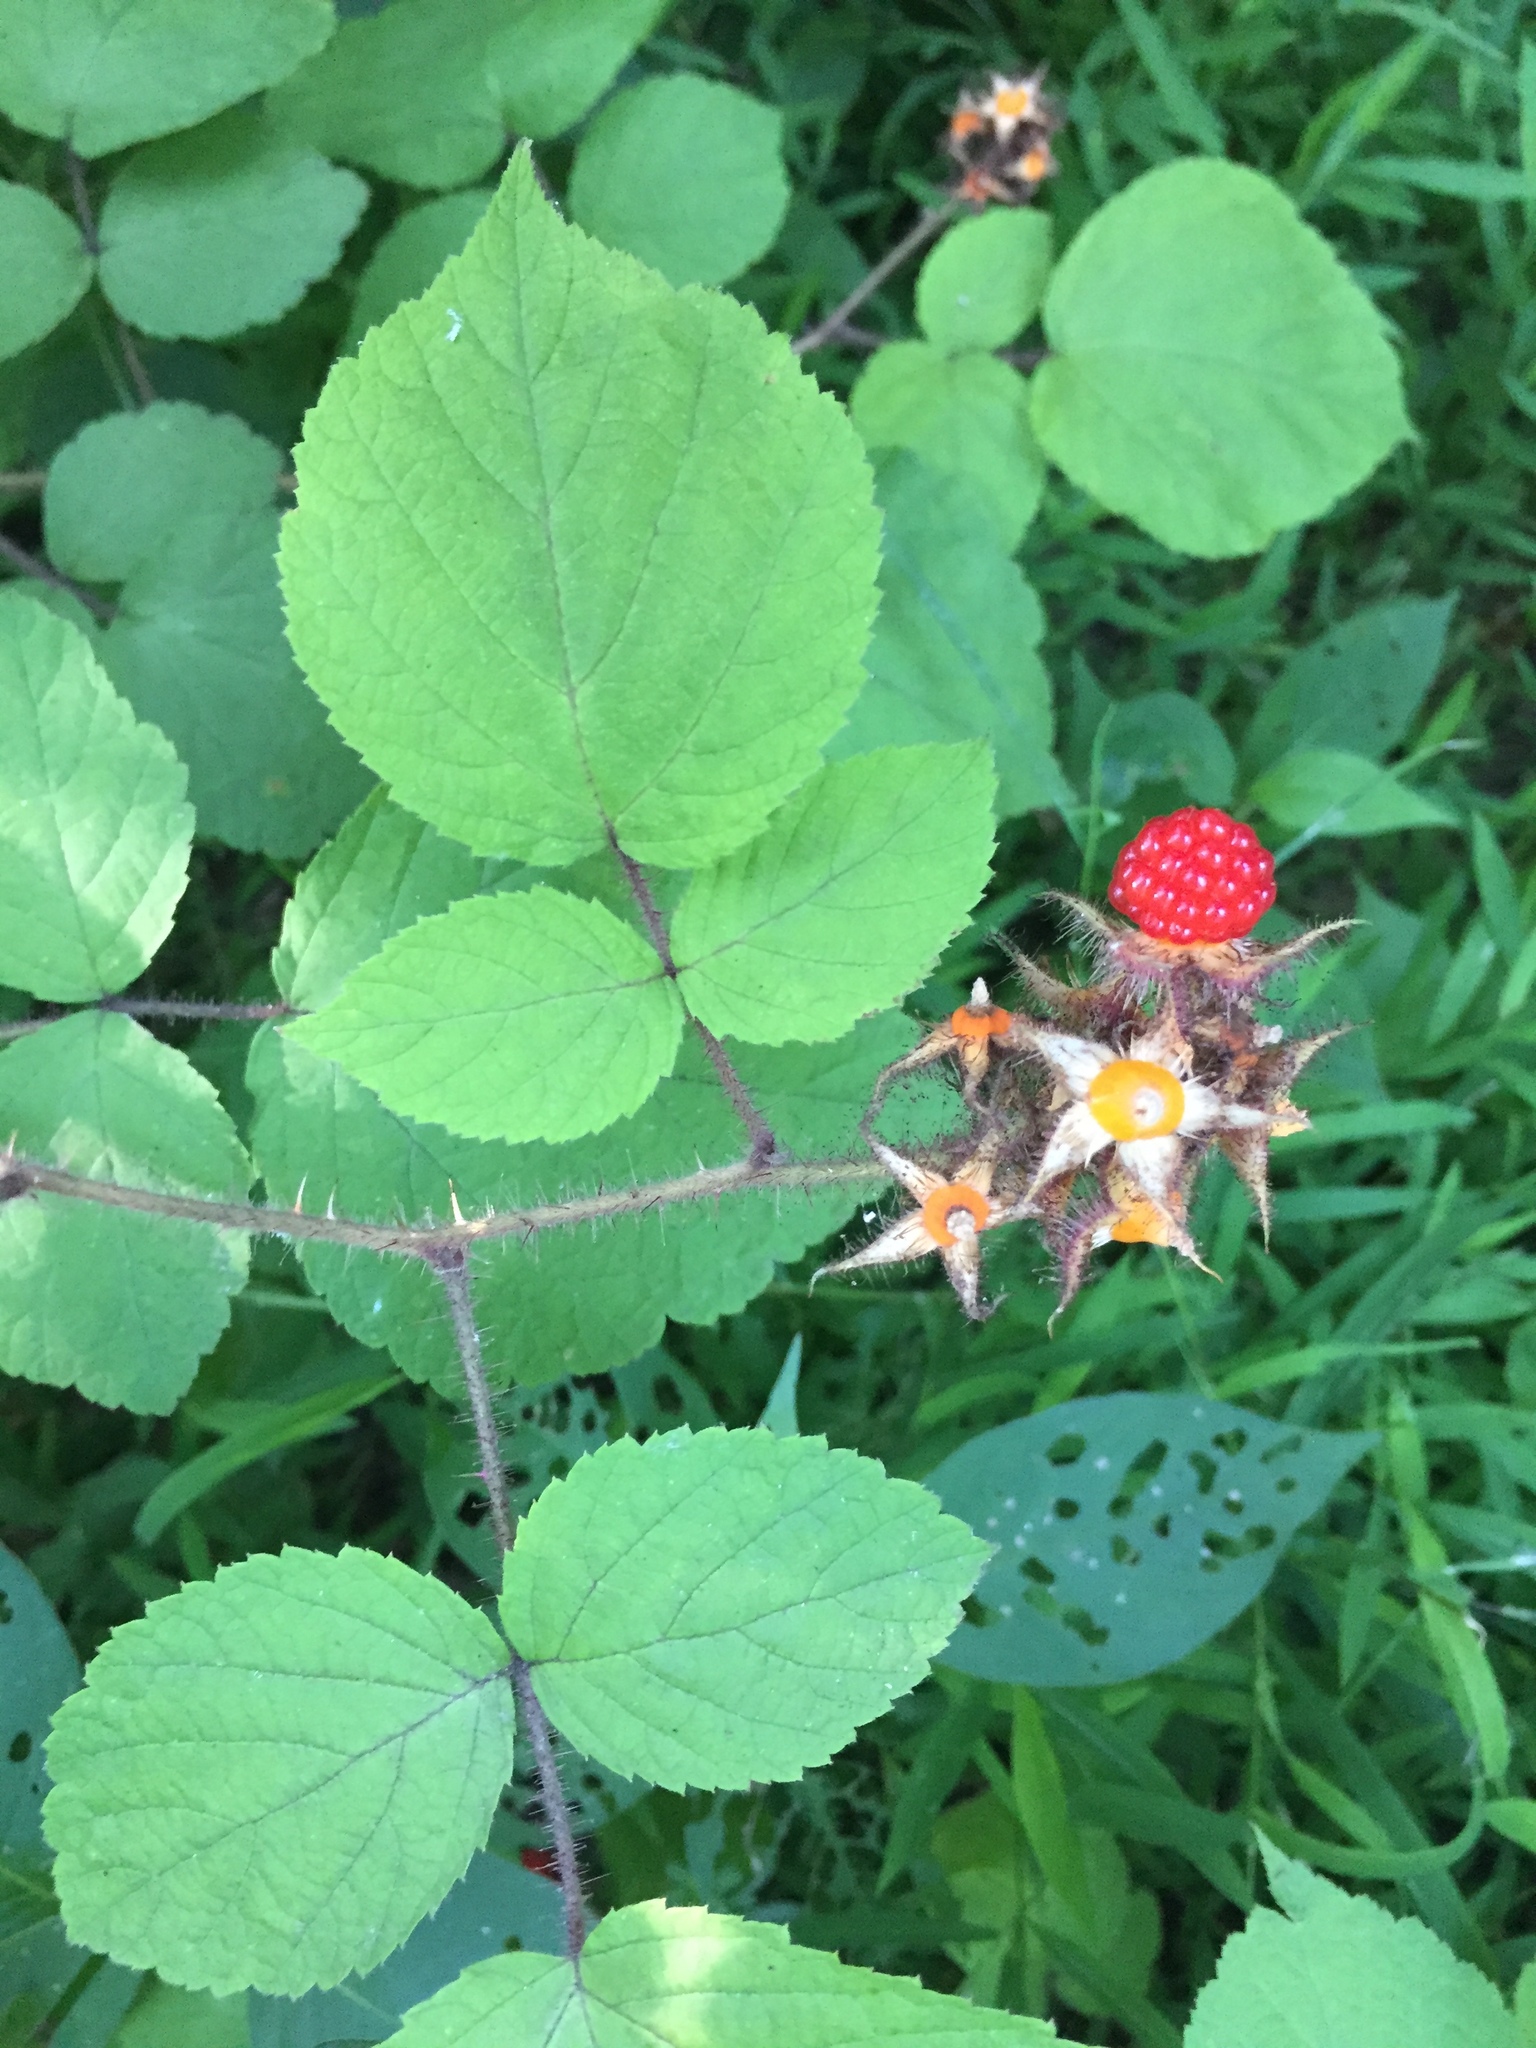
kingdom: Plantae
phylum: Tracheophyta
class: Magnoliopsida
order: Rosales
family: Rosaceae
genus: Rubus
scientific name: Rubus phoenicolasius
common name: Japanese wineberry
